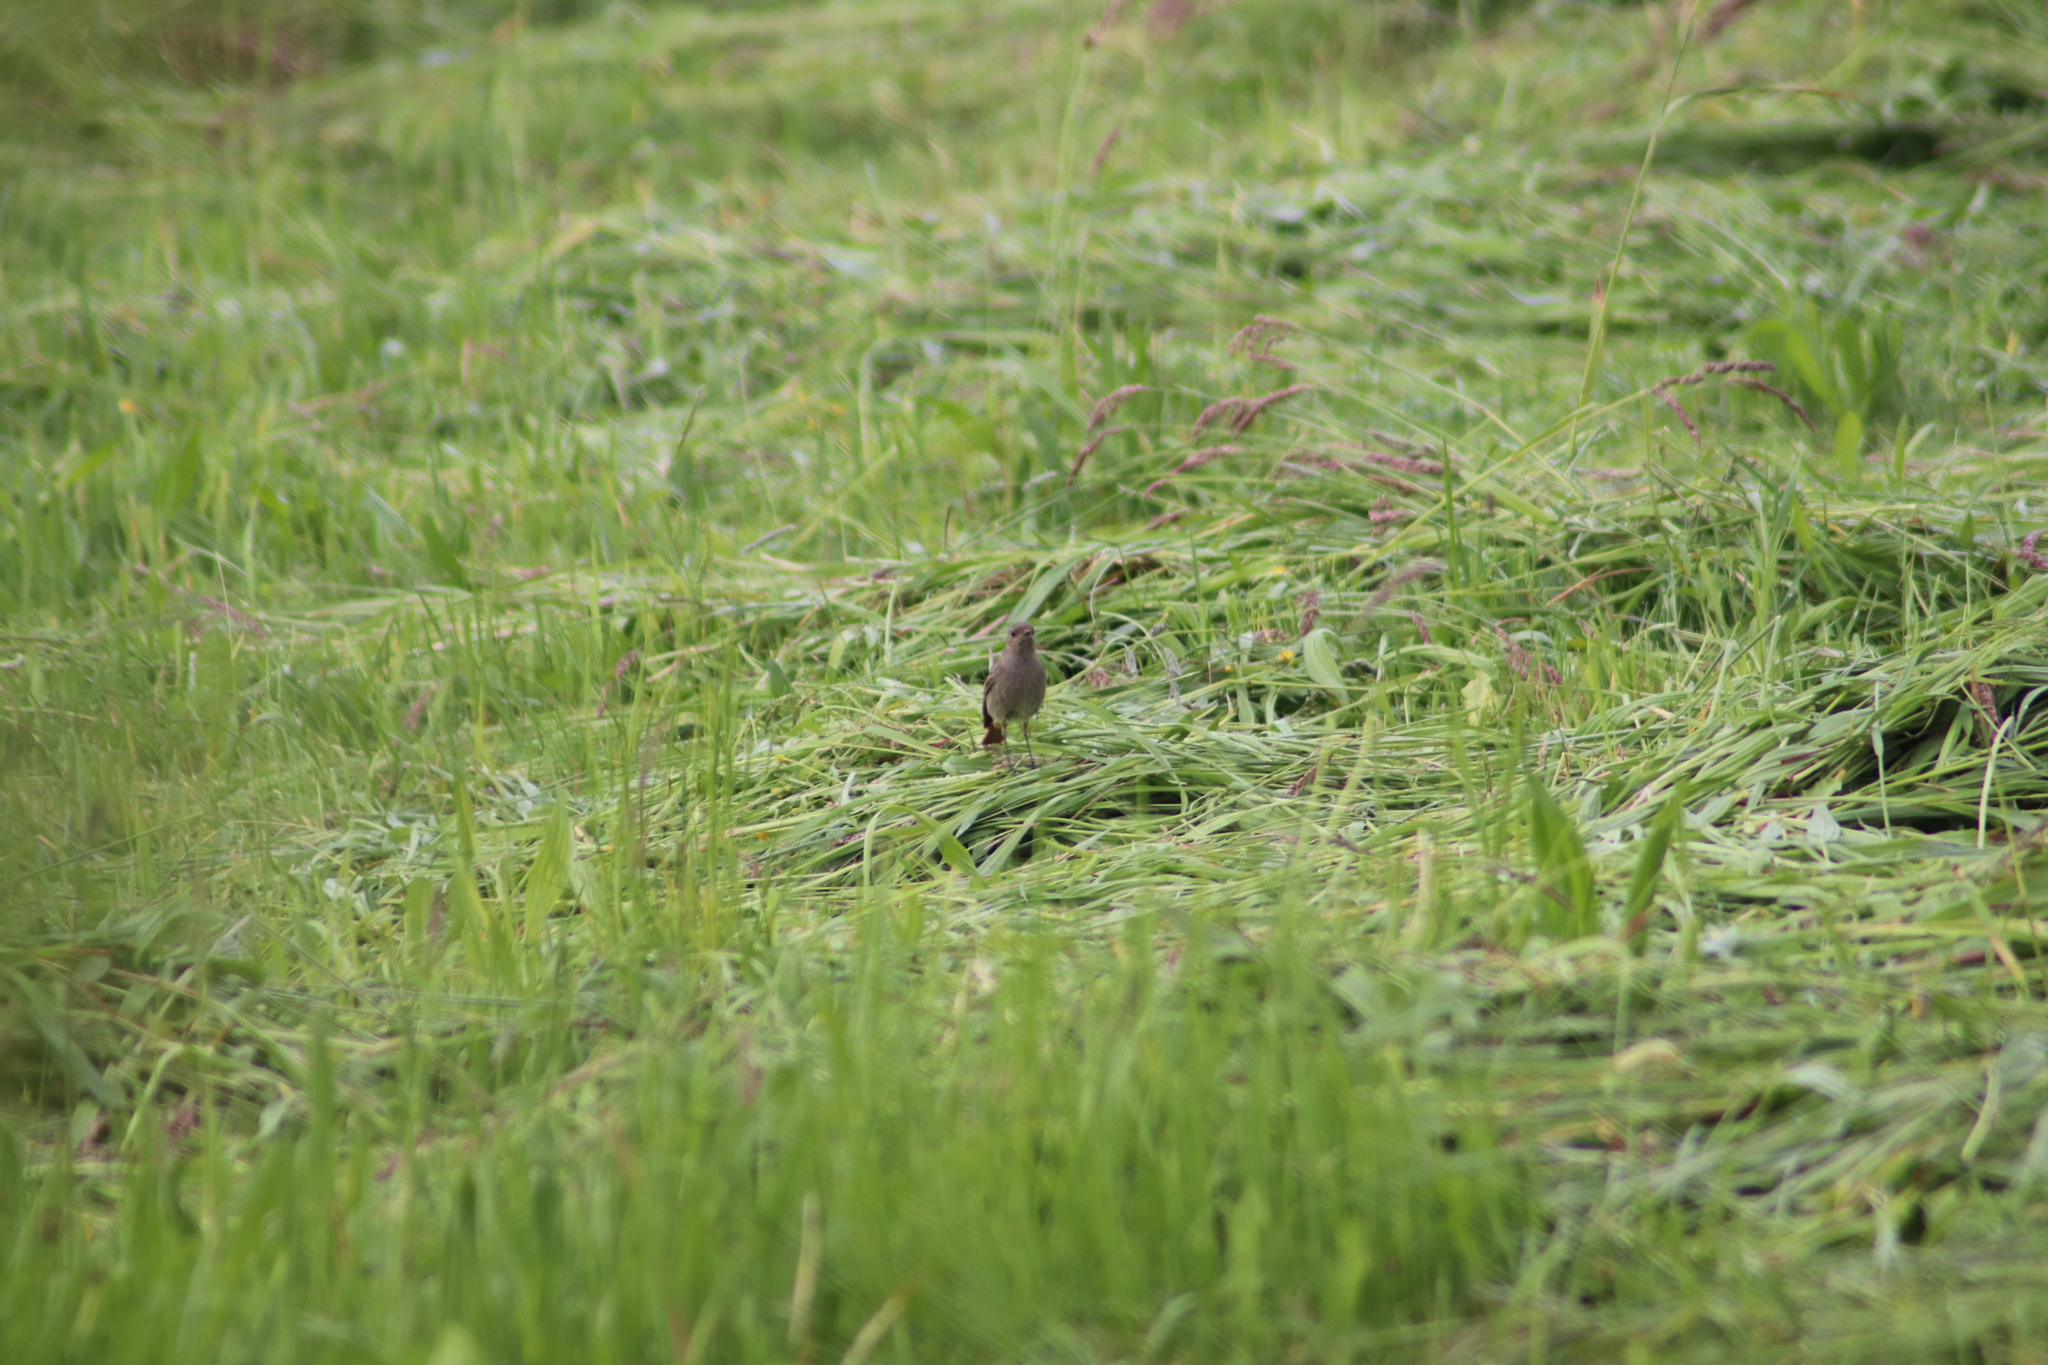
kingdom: Animalia
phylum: Chordata
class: Aves
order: Passeriformes
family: Muscicapidae
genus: Phoenicurus
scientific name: Phoenicurus ochruros
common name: Black redstart
